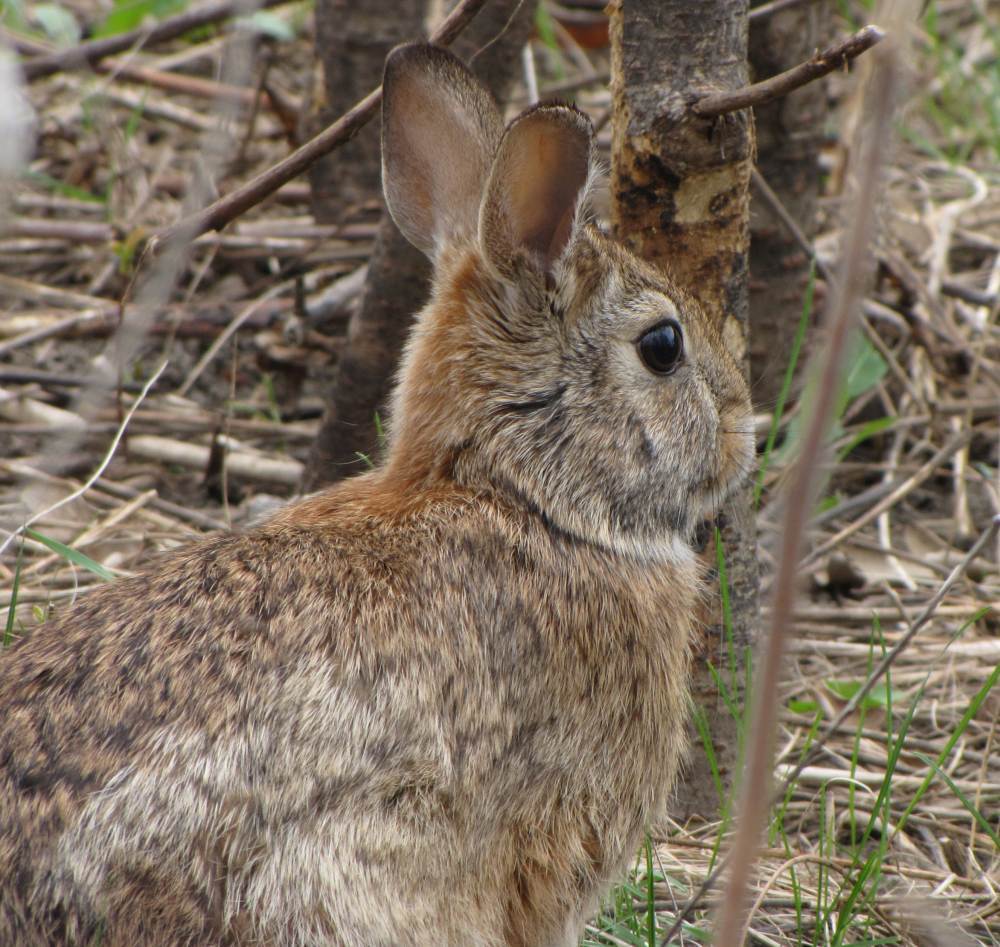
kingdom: Animalia
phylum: Chordata
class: Mammalia
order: Lagomorpha
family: Leporidae
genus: Sylvilagus
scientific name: Sylvilagus floridanus
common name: Eastern cottontail
